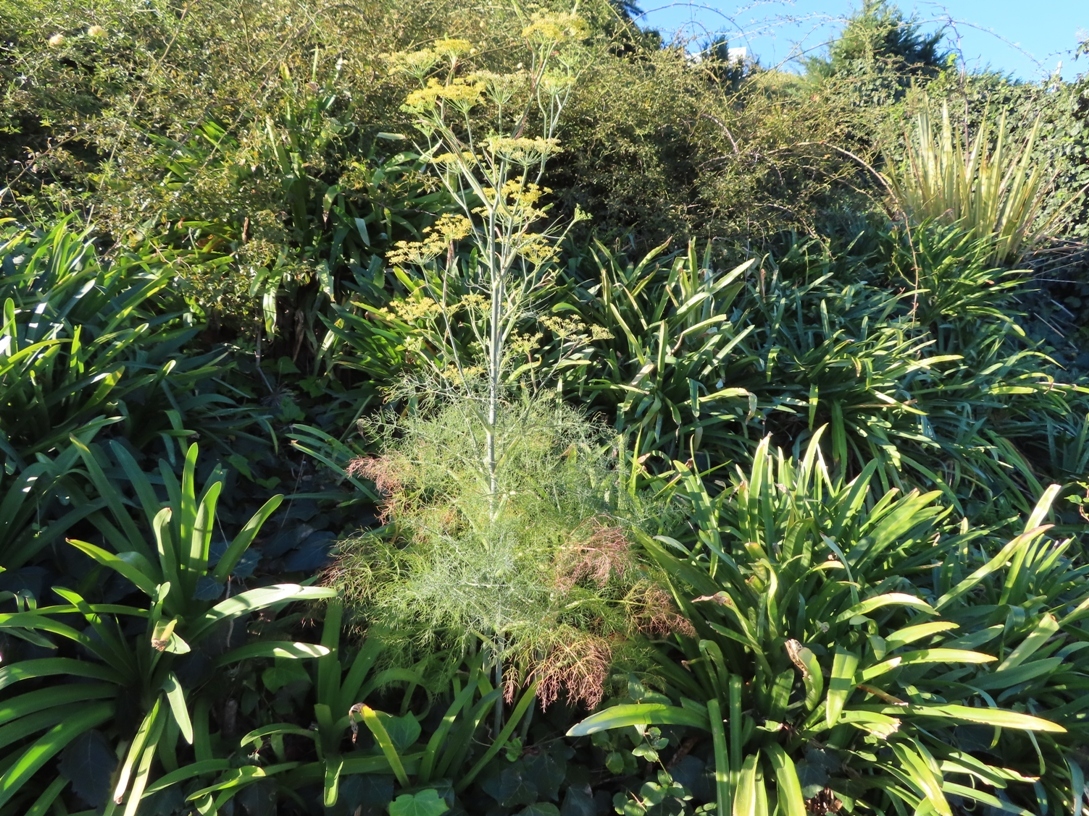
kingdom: Plantae
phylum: Tracheophyta
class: Magnoliopsida
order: Apiales
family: Apiaceae
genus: Foeniculum
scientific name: Foeniculum vulgare
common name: Fennel
